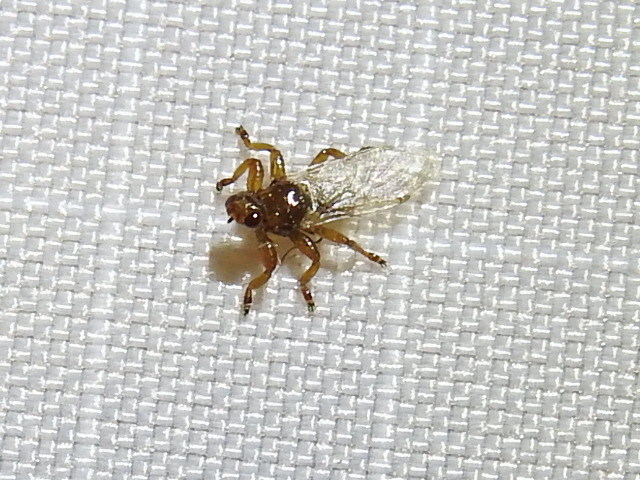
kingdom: Animalia
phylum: Arthropoda
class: Insecta
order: Diptera
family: Hippoboscidae
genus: Lipoptena
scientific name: Lipoptena mazamae
